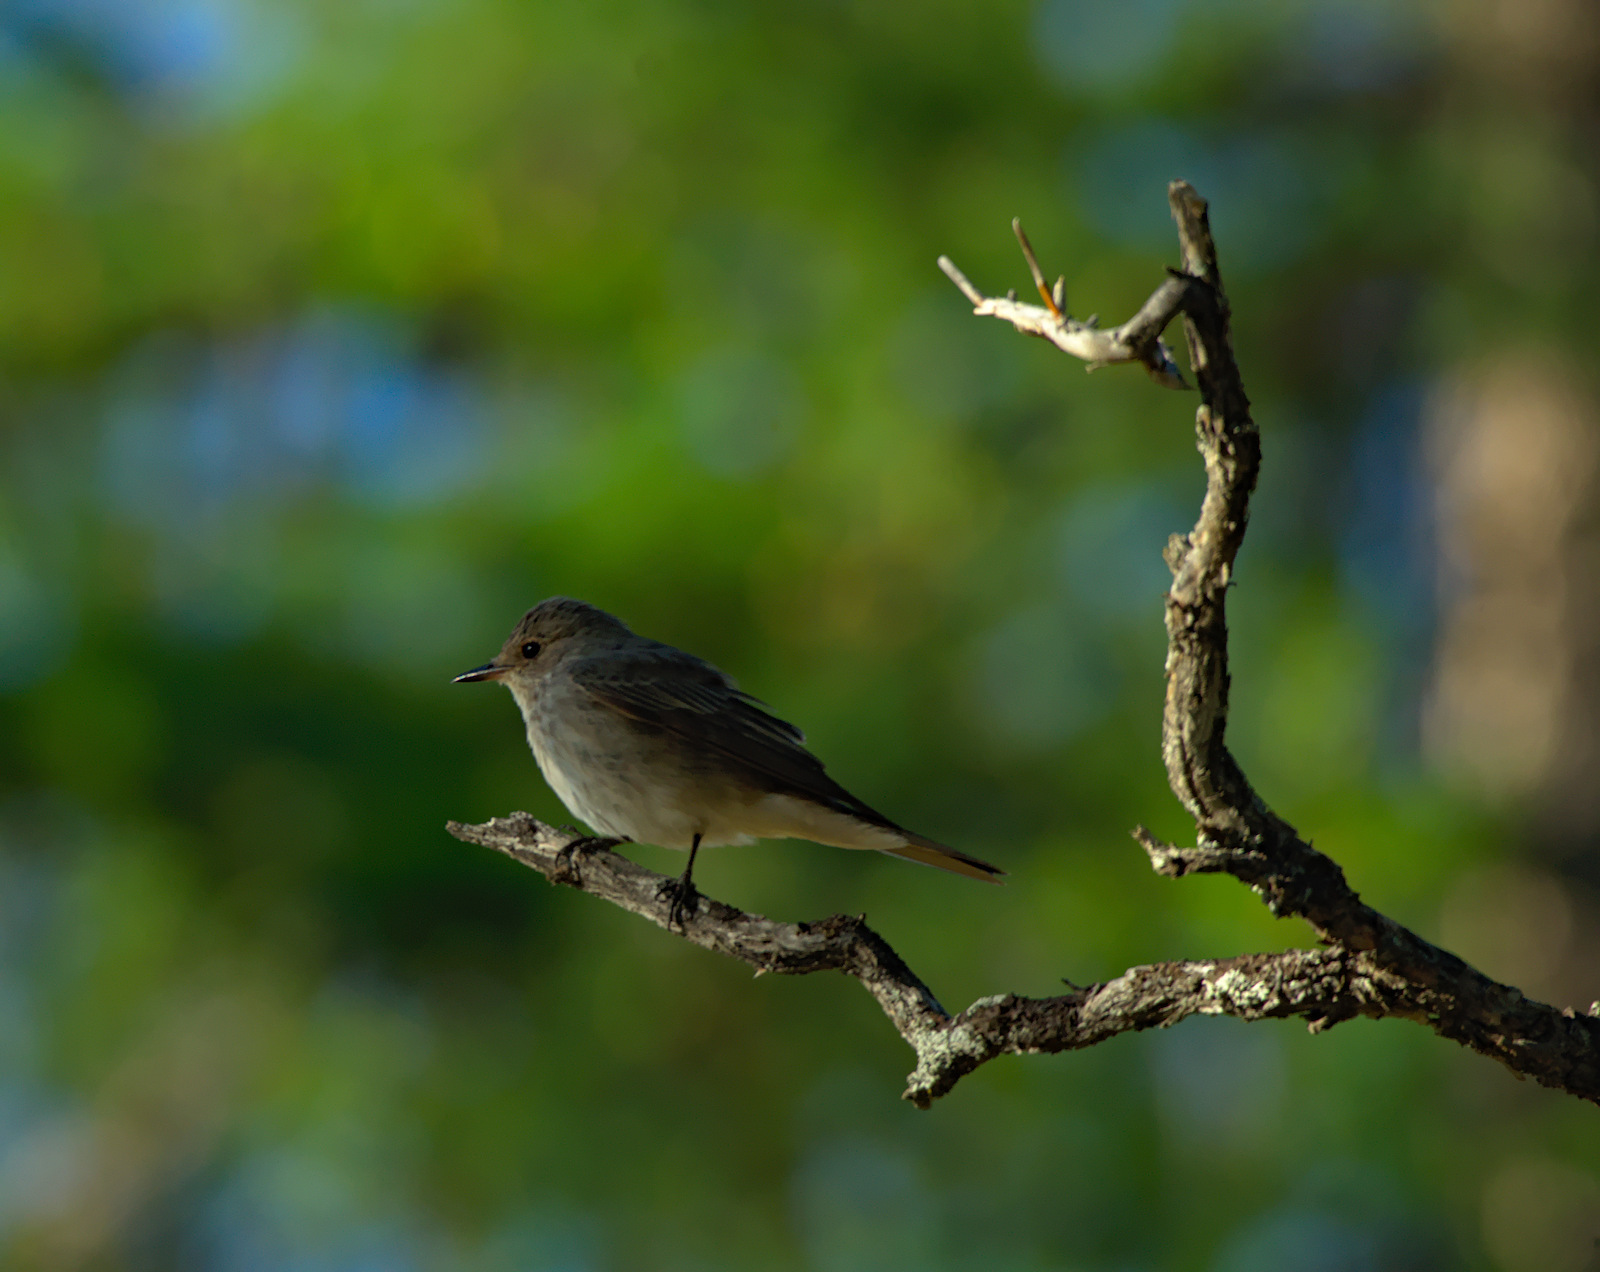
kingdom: Animalia
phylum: Chordata
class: Aves
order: Passeriformes
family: Muscicapidae
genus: Muscicapa
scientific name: Muscicapa striata
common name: Spotted flycatcher
